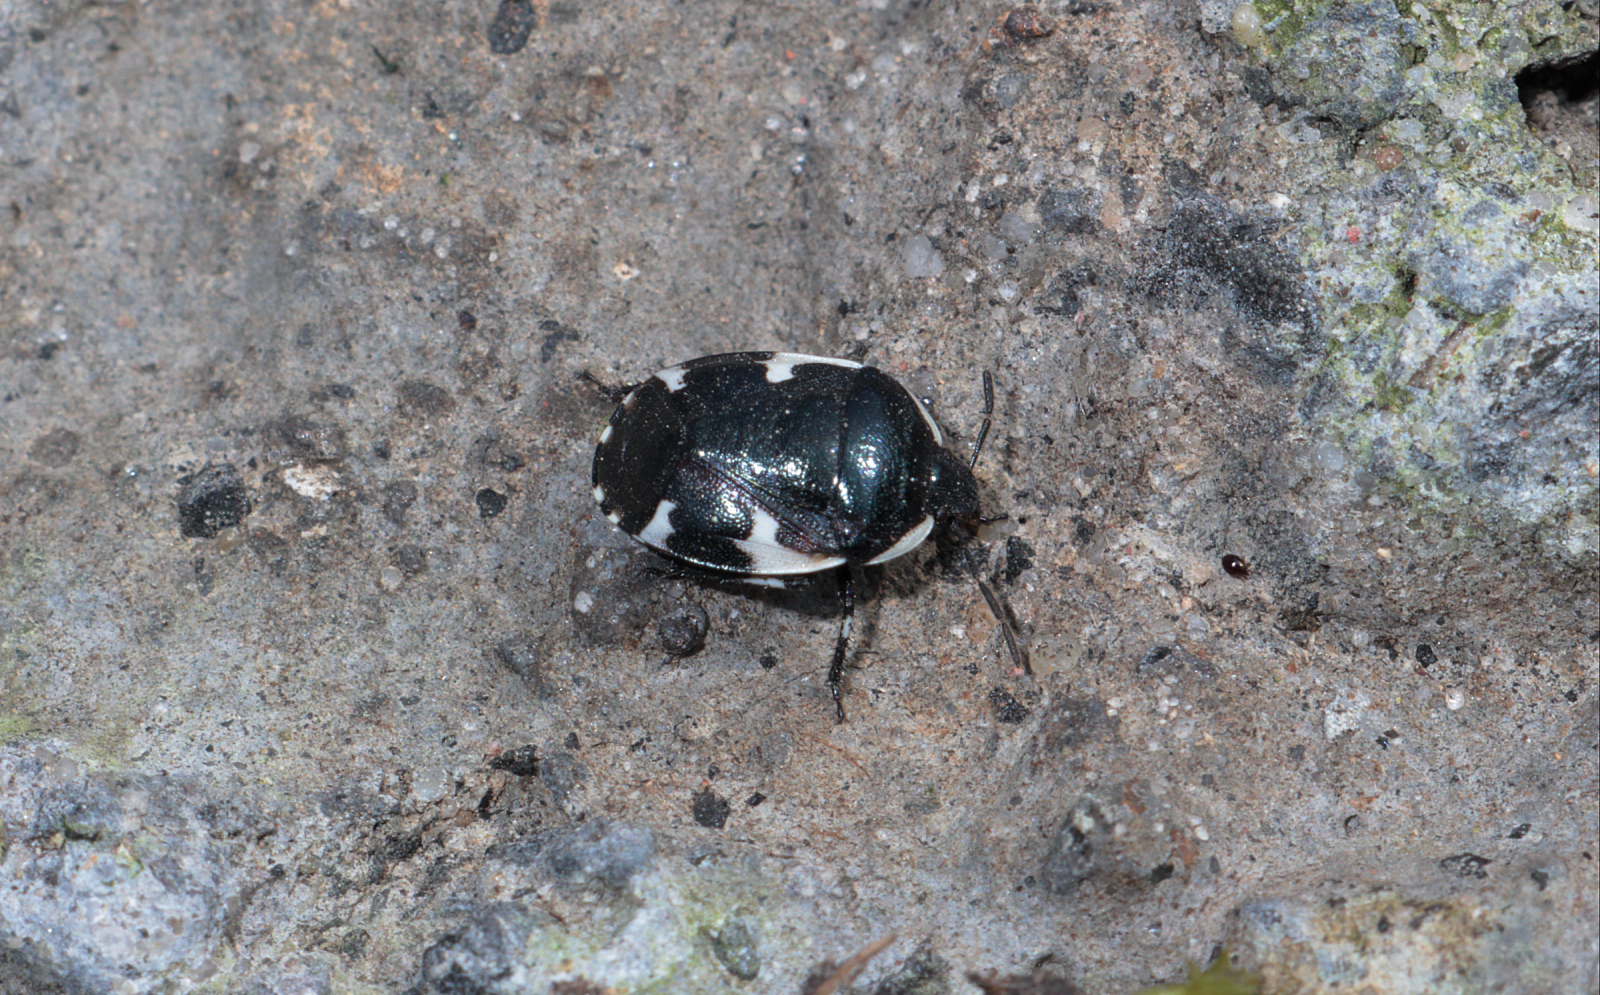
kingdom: Animalia
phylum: Arthropoda
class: Insecta
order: Hemiptera
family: Cydnidae
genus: Tritomegas
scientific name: Tritomegas sexmaculatus
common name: Rambur's pied shieldbug
